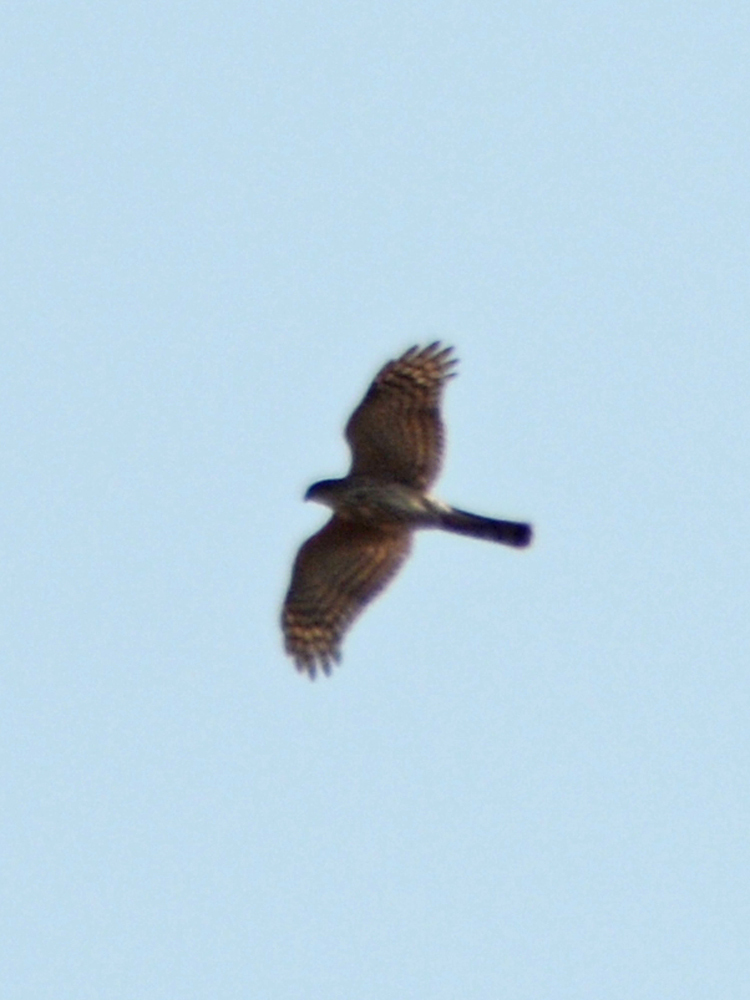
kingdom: Animalia
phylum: Chordata
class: Aves
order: Accipitriformes
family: Accipitridae
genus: Accipiter
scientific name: Accipiter striatus
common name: Sharp-shinned hawk
